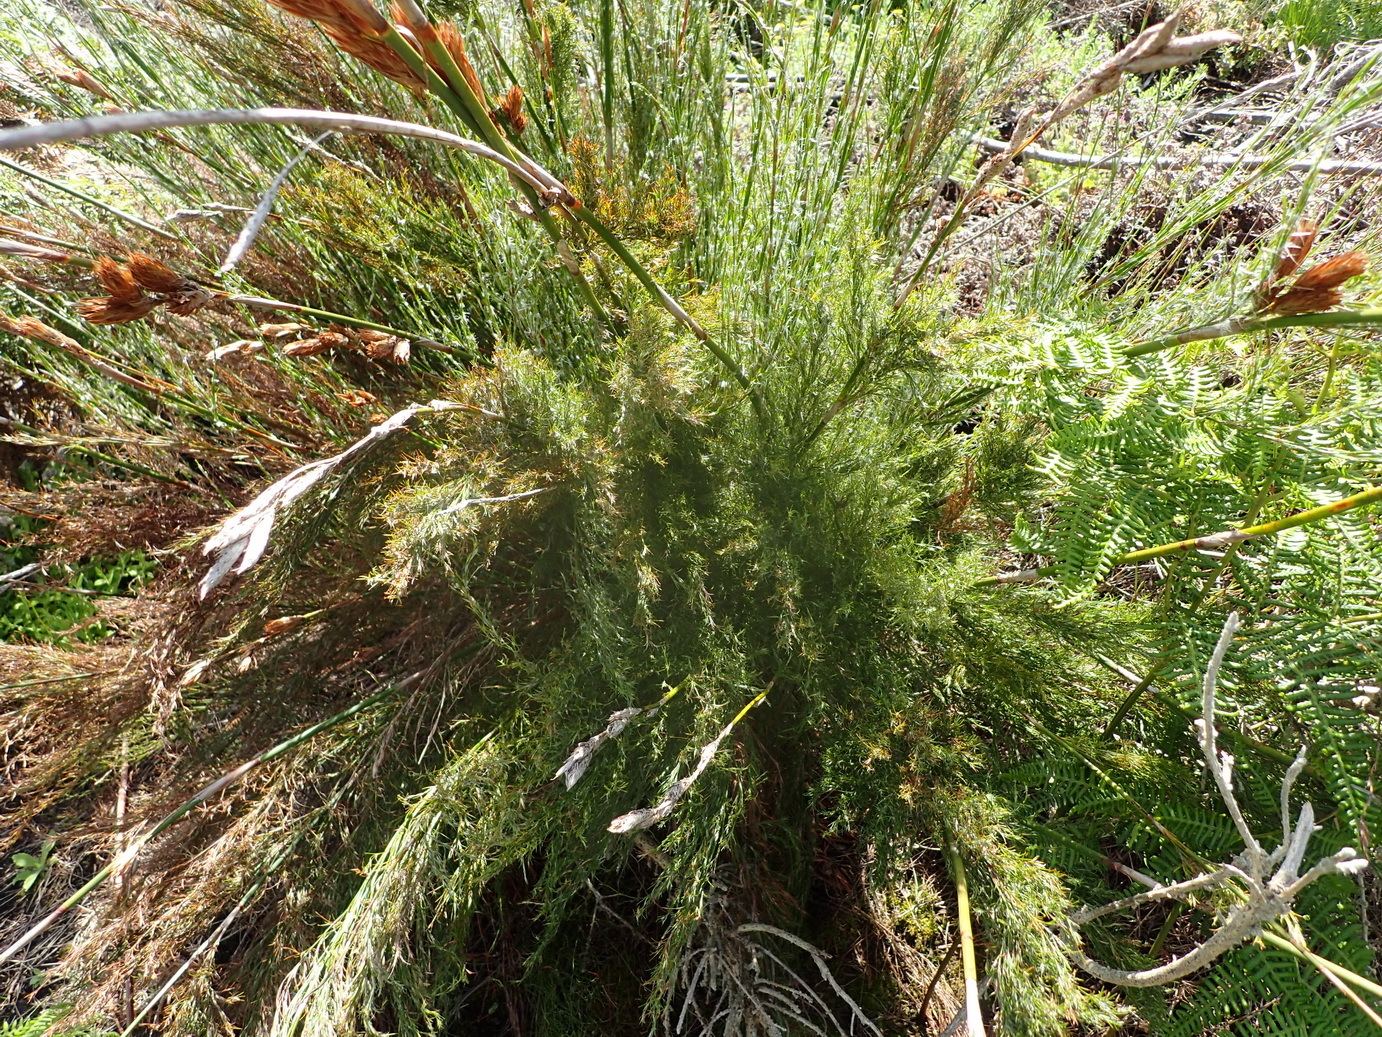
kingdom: Plantae
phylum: Tracheophyta
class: Liliopsida
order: Poales
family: Restionaceae
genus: Thamnochortus
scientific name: Thamnochortus glaber
